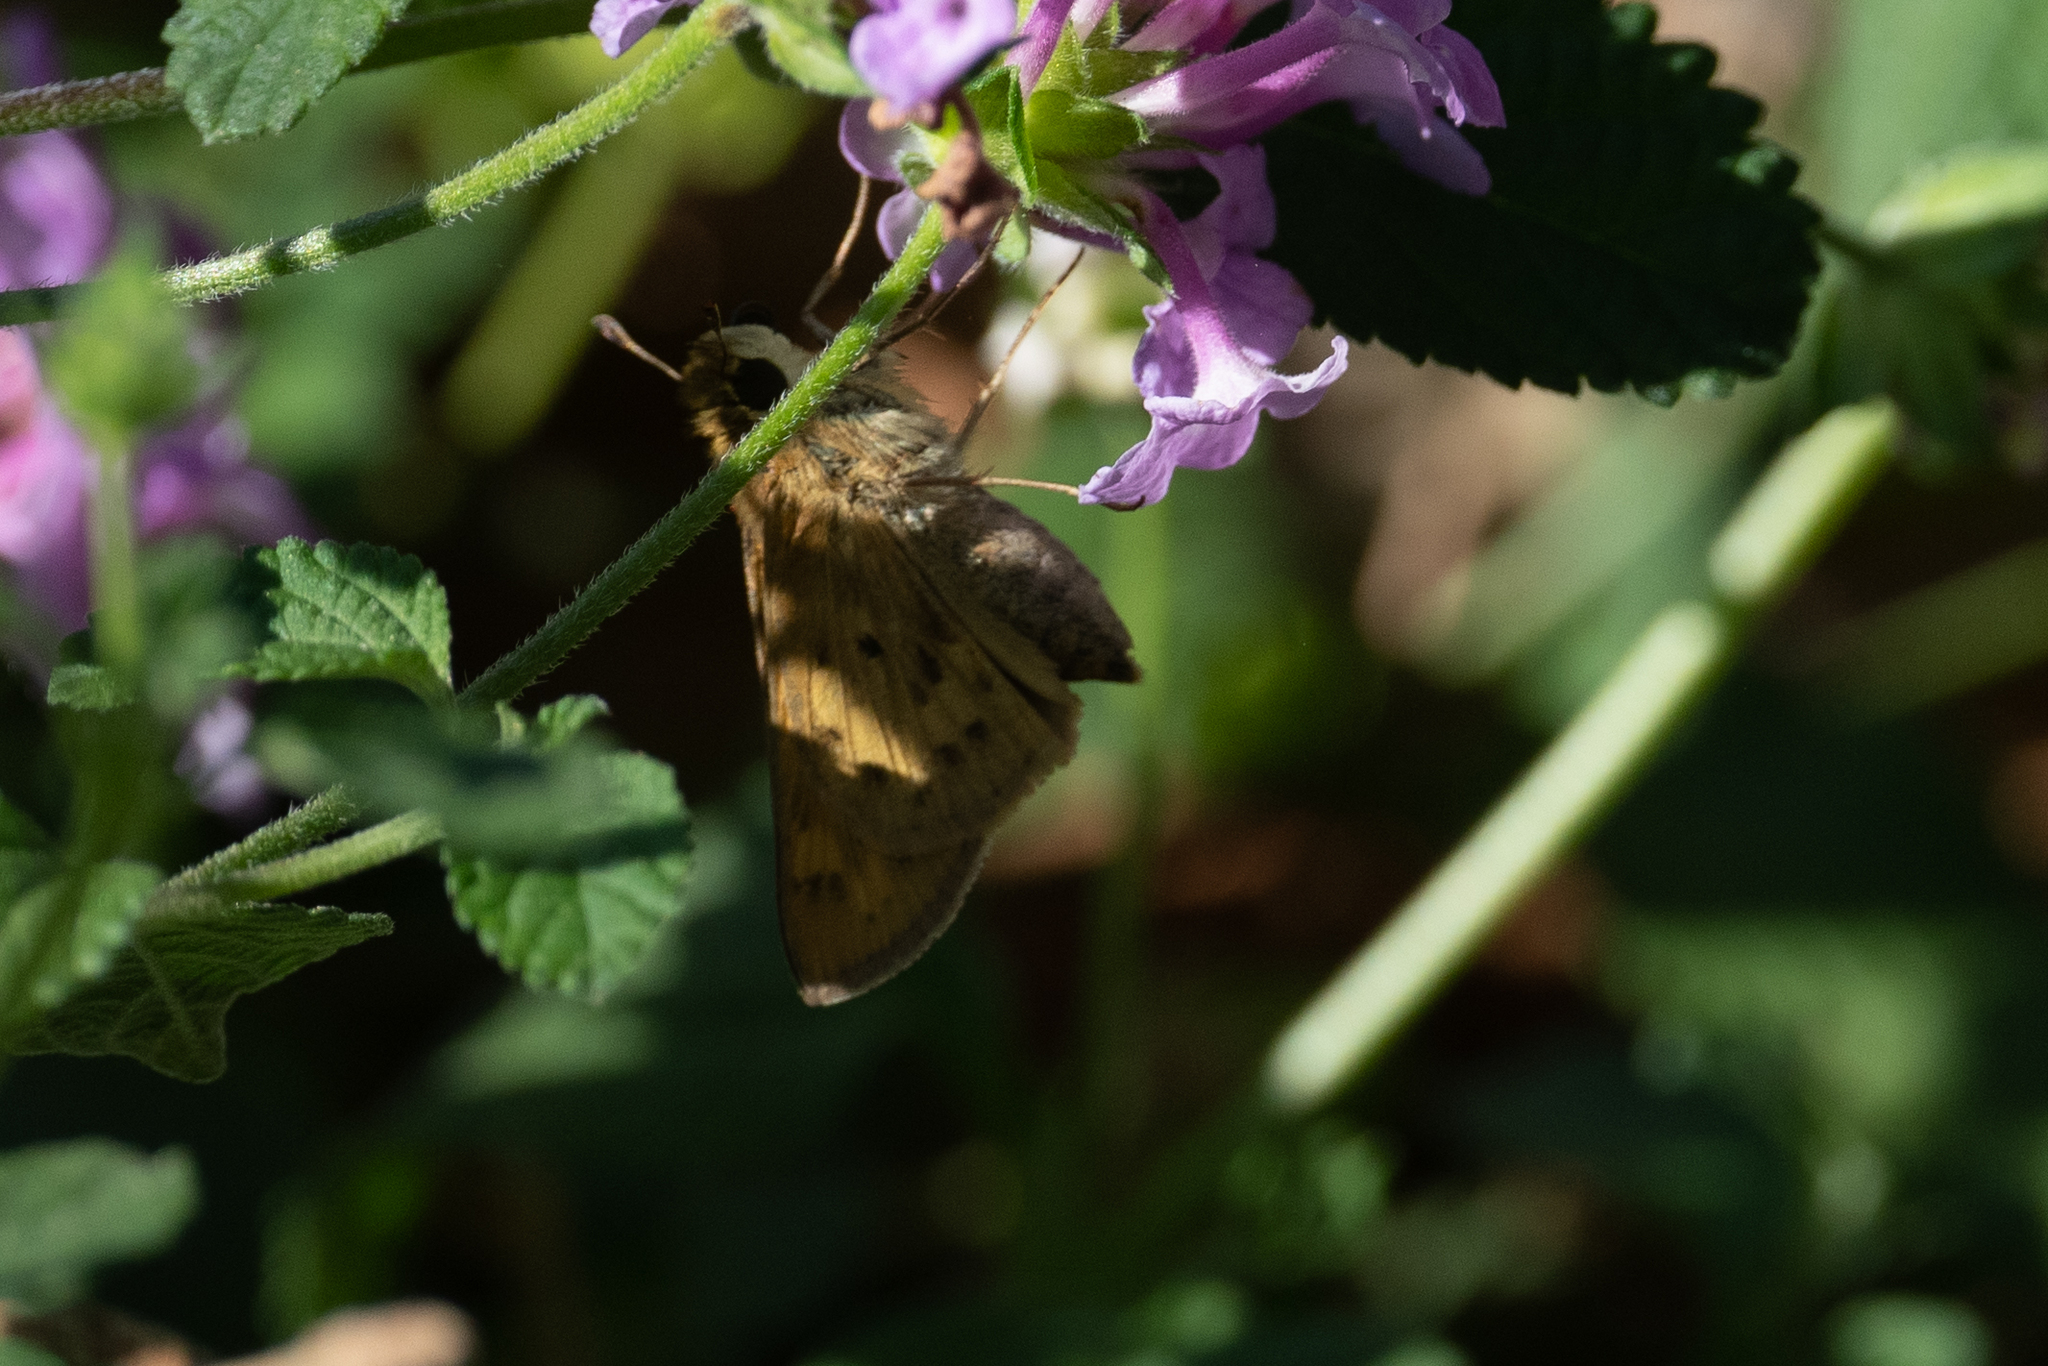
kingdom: Animalia
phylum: Arthropoda
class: Insecta
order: Lepidoptera
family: Hesperiidae
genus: Hylephila
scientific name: Hylephila phyleus
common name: Fiery skipper
